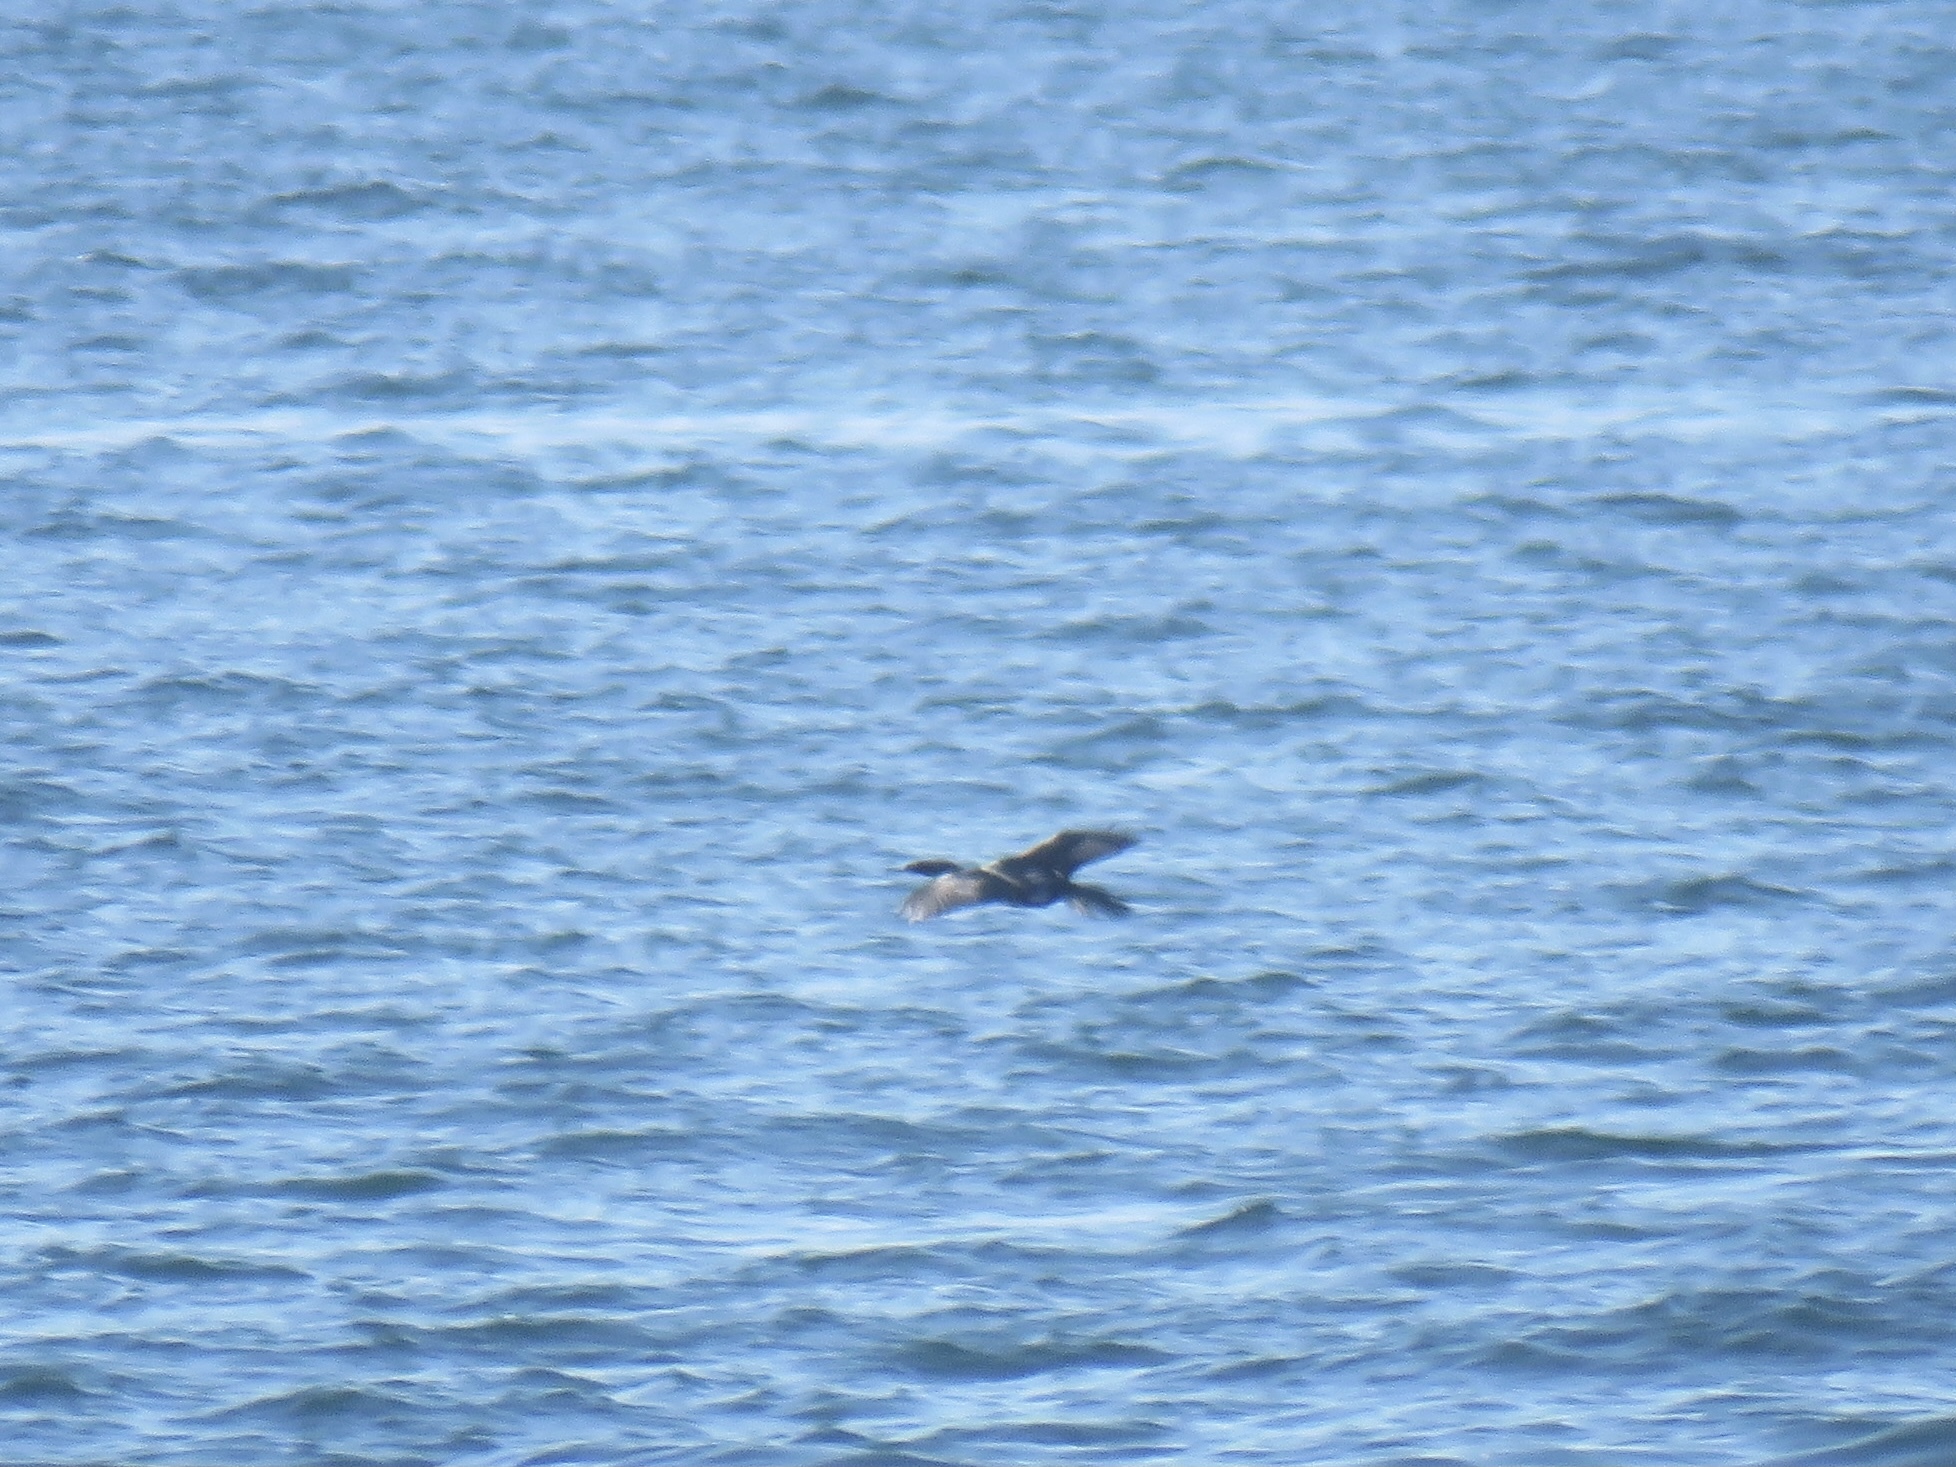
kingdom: Animalia
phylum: Chordata
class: Aves
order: Suliformes
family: Phalacrocoracidae
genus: Phalacrocorax
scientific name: Phalacrocorax pelagicus
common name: Pelagic cormorant
